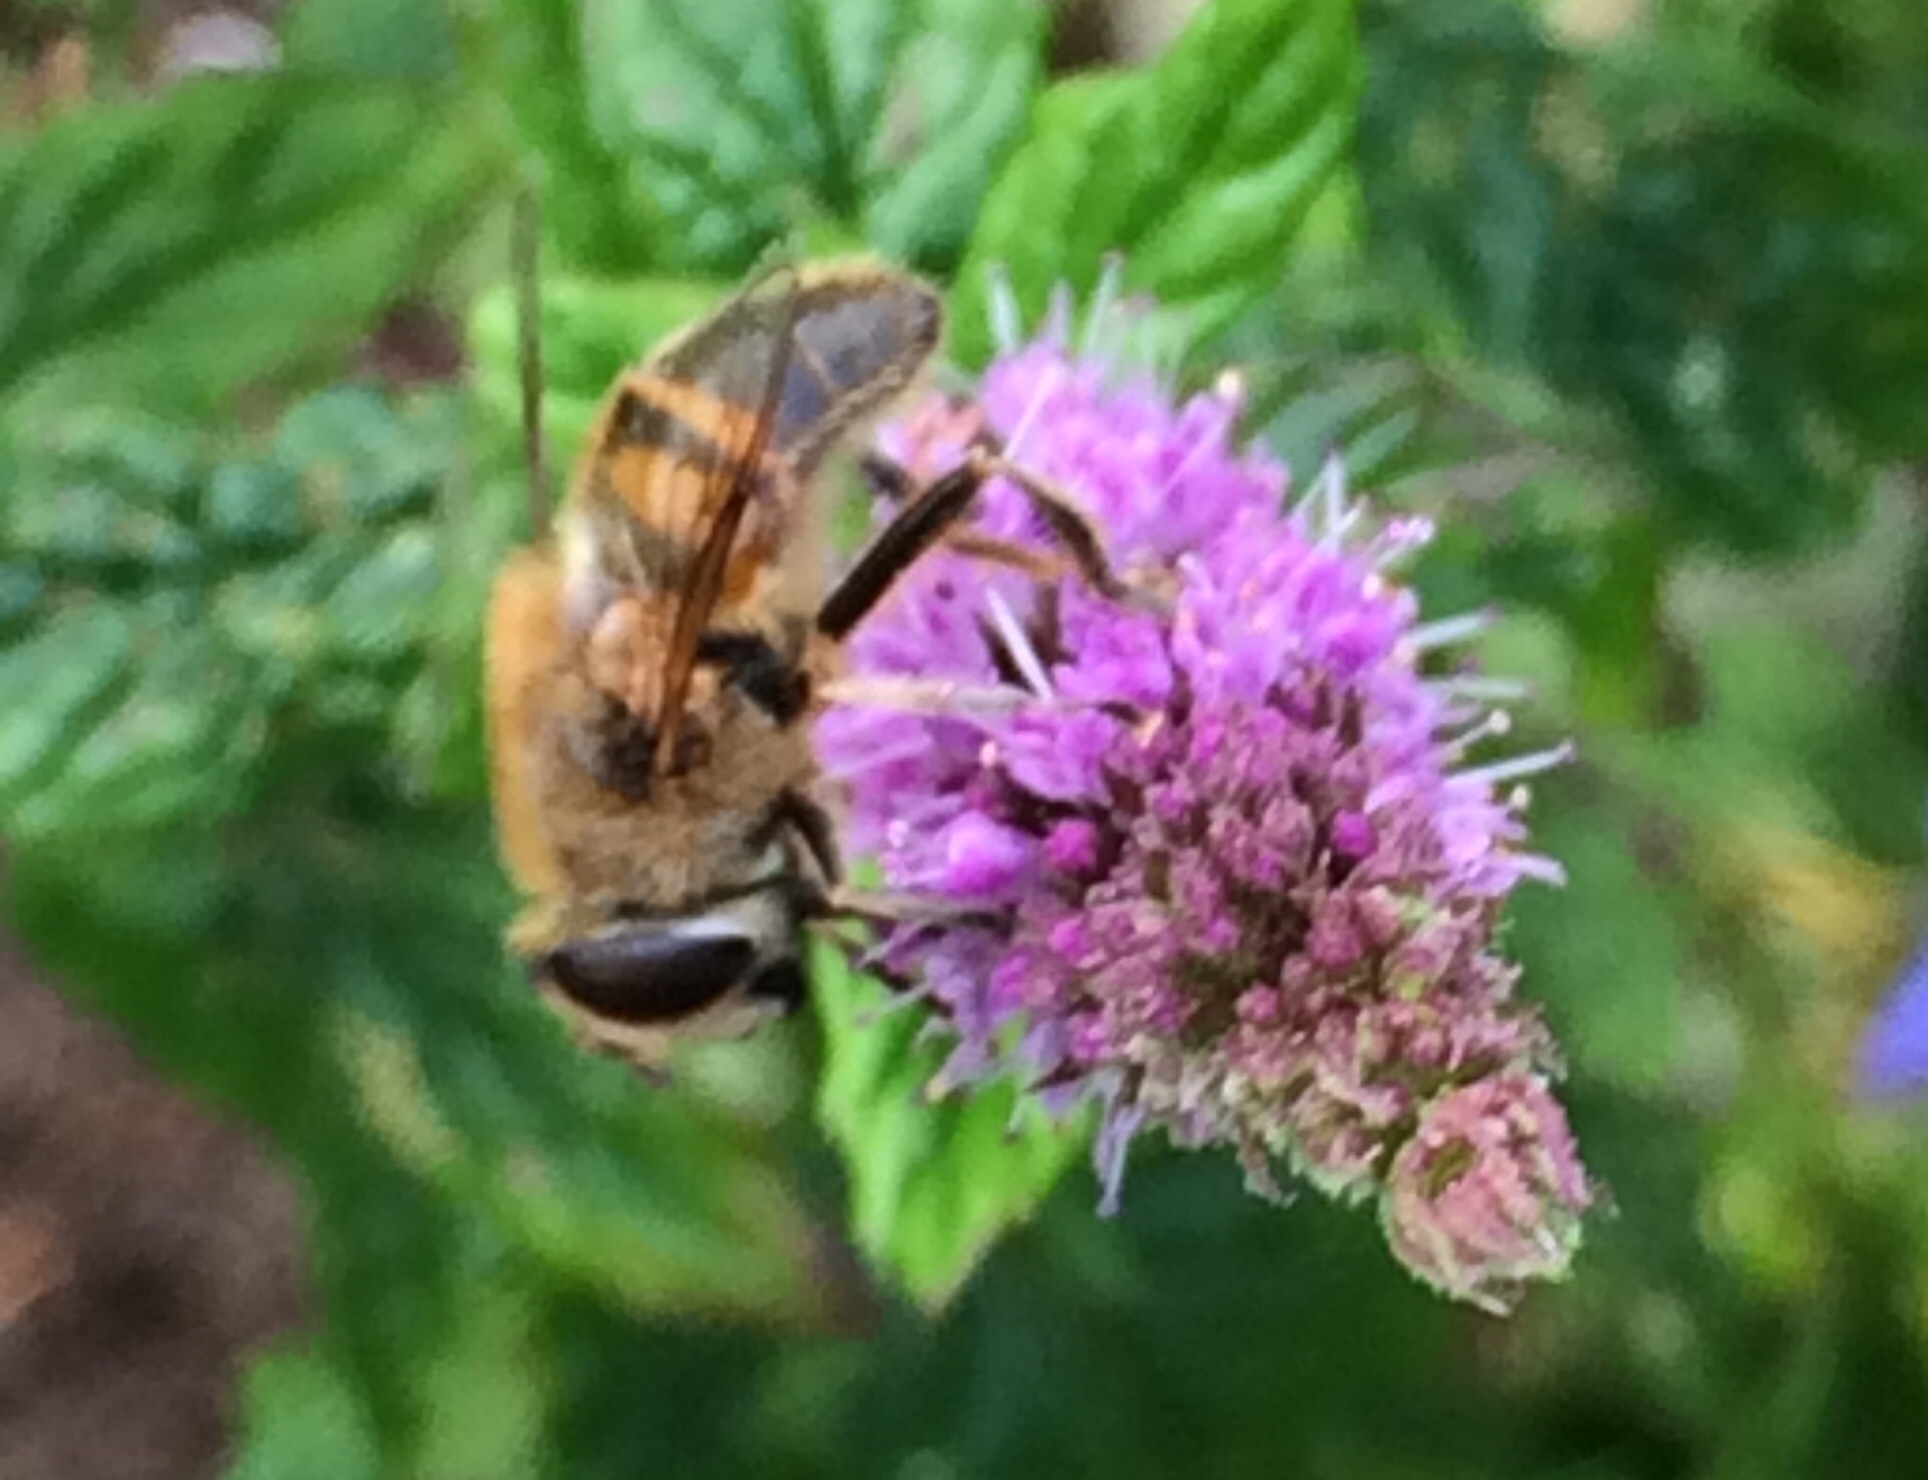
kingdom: Animalia
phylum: Arthropoda
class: Insecta
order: Diptera
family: Syrphidae
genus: Eristalis
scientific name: Eristalis tenax
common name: Drone fly
